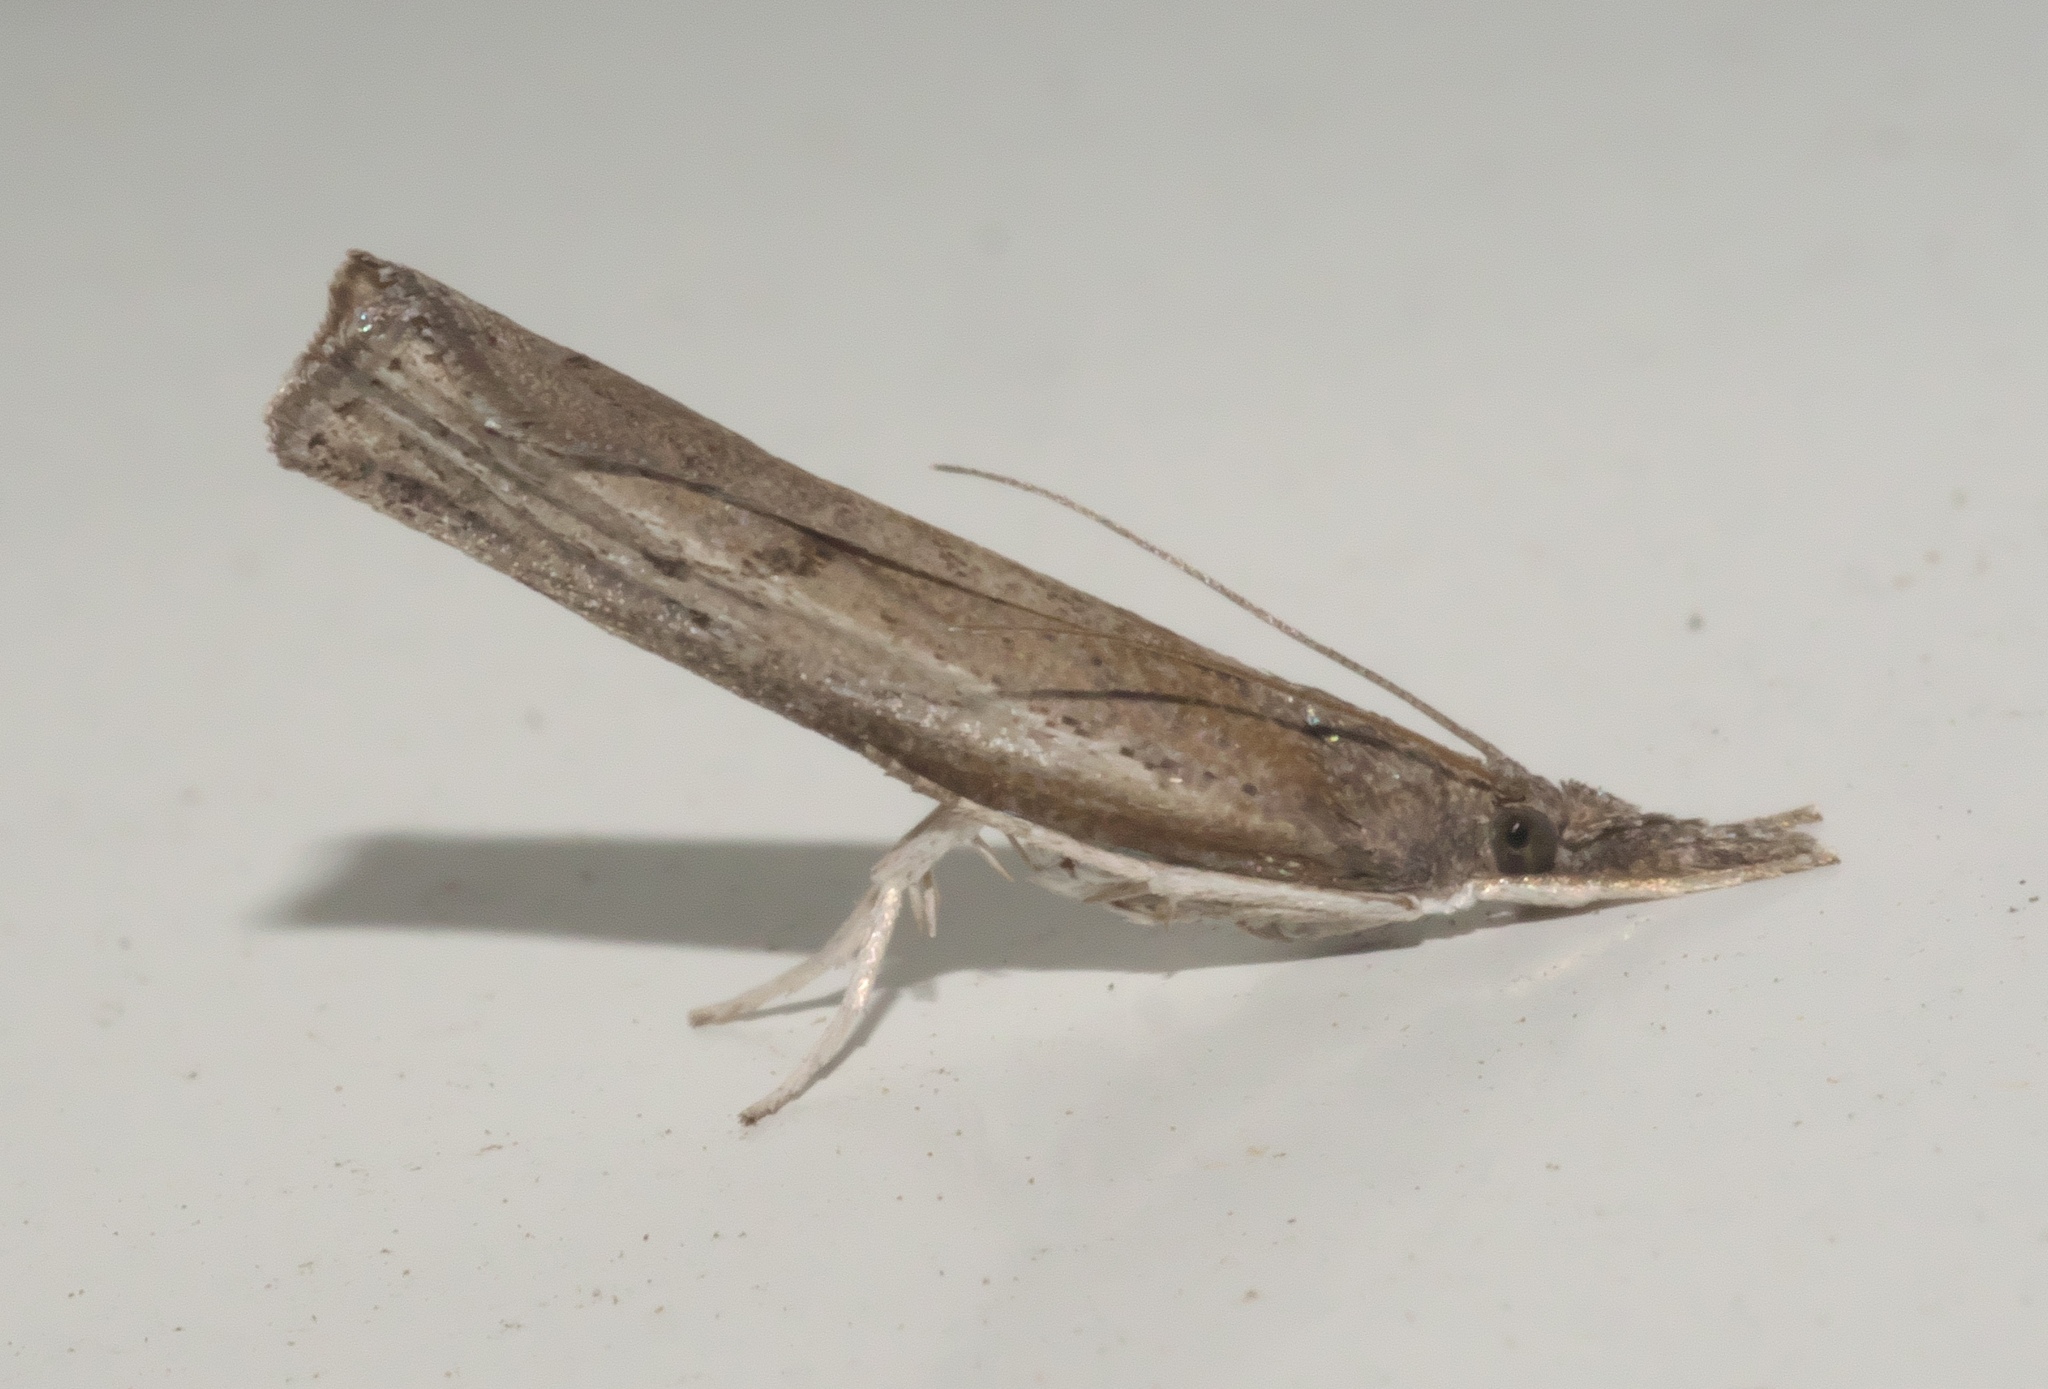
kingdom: Animalia
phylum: Arthropoda
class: Insecta
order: Lepidoptera
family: Crambidae
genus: Fissicrambus
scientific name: Fissicrambus mutabilis
